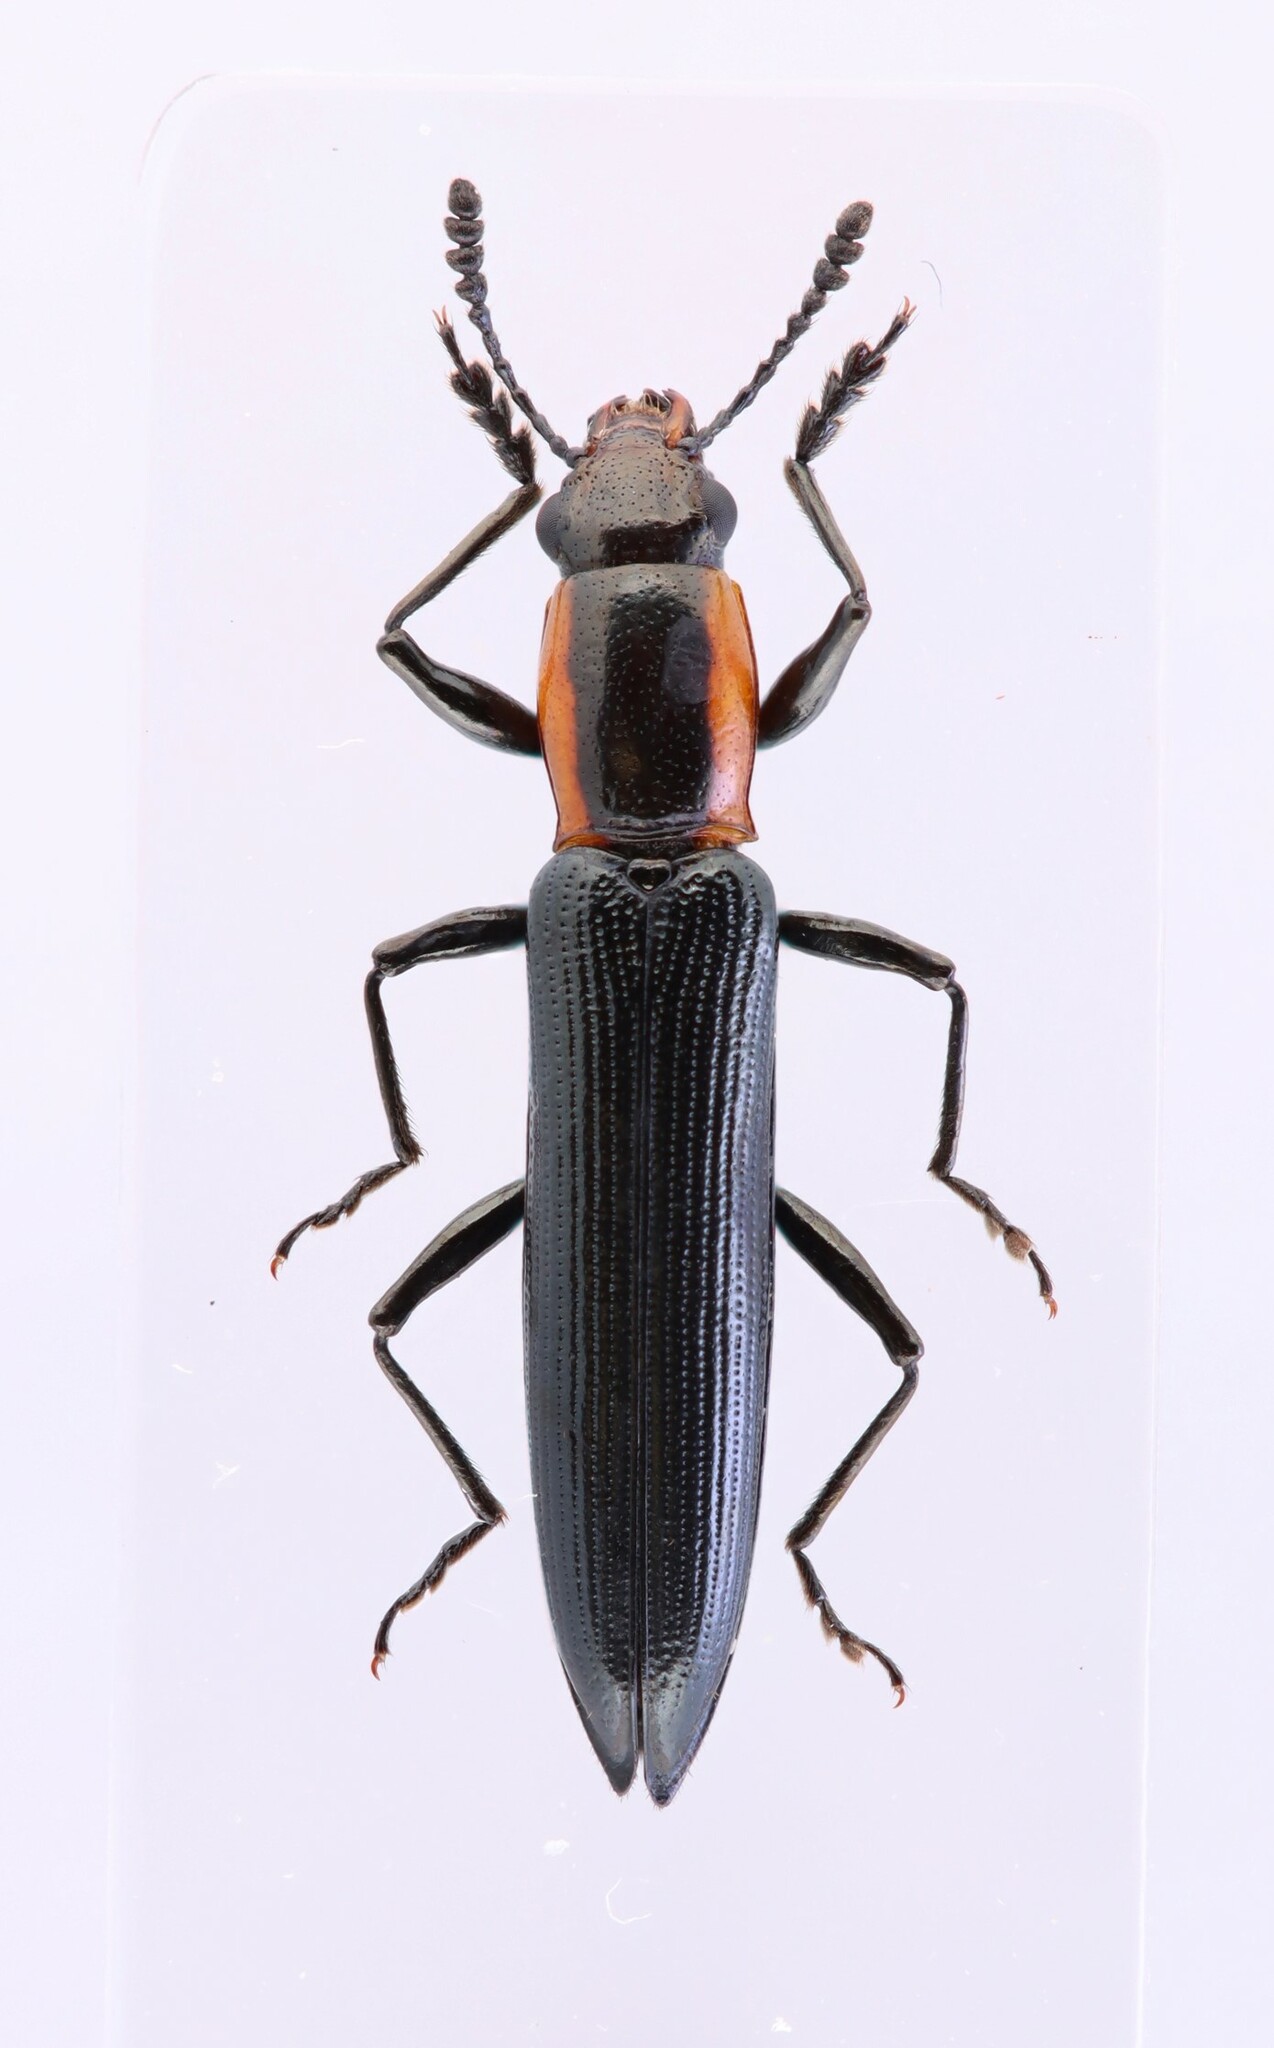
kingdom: Animalia
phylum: Arthropoda
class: Insecta
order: Coleoptera
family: Erotylidae
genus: Acropteroxys
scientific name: Acropteroxys gracilis
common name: Slender lizard beetle
